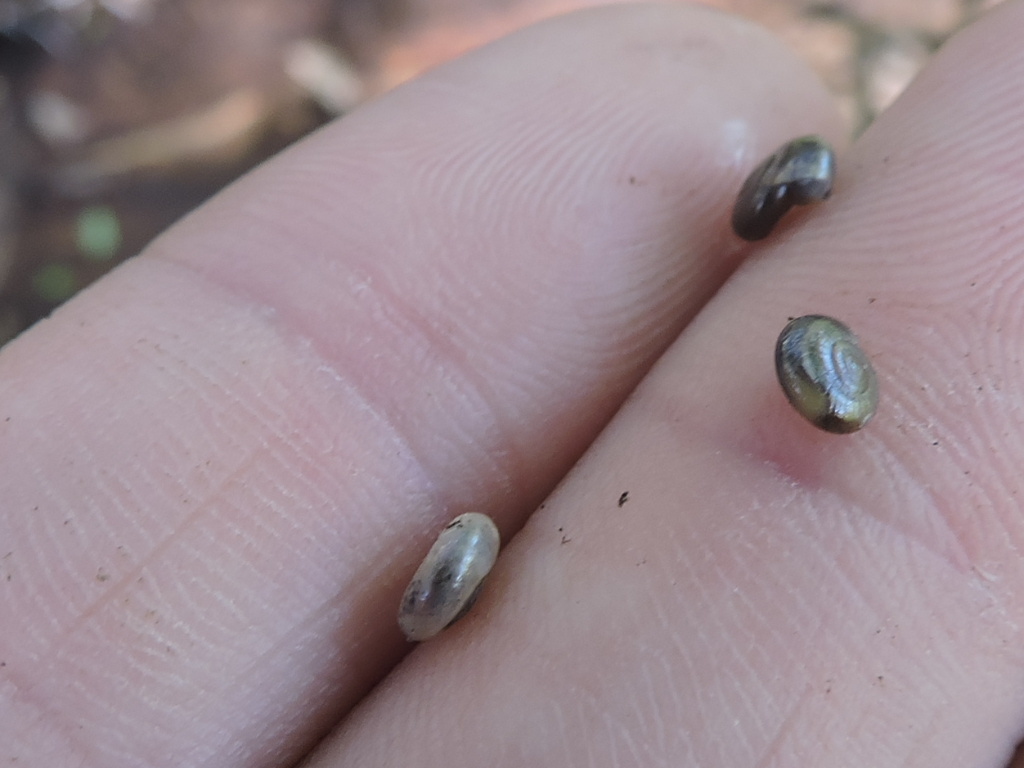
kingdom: Animalia
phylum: Mollusca
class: Gastropoda
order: Stylommatophora
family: Gastrodontidae
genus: Glyphyalinia
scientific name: Glyphyalinia indentata
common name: Carved glyph
